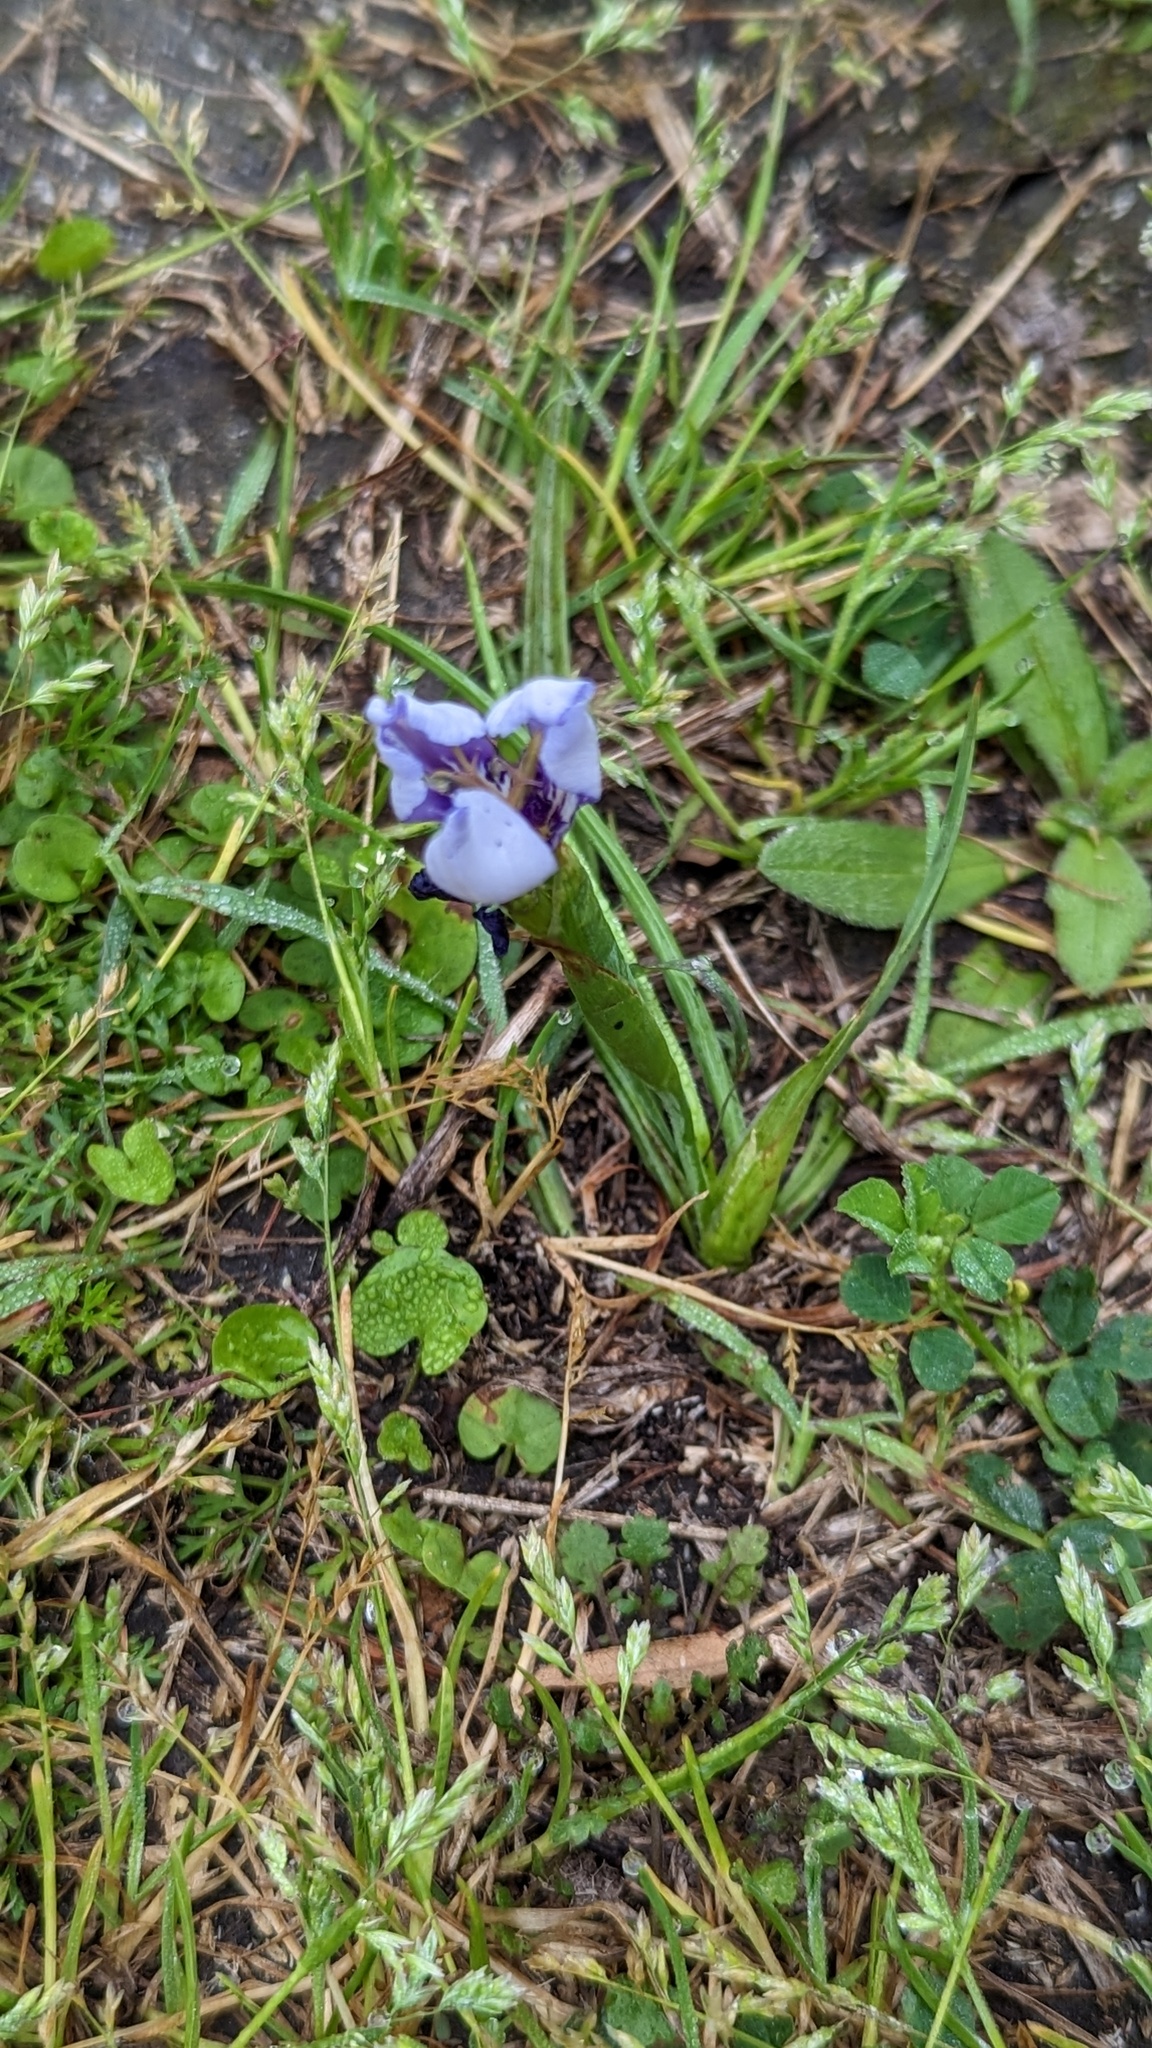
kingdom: Plantae
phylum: Tracheophyta
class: Liliopsida
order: Asparagales
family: Iridaceae
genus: Herbertia
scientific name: Herbertia lahue
